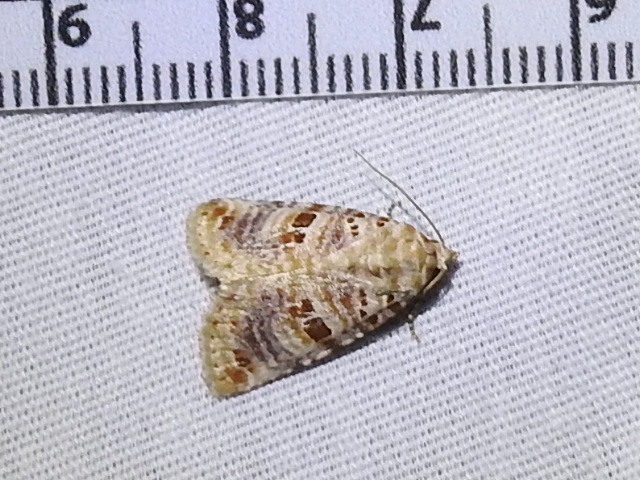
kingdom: Animalia
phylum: Arthropoda
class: Insecta
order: Lepidoptera
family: Noctuidae
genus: Diastema
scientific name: Diastema tigris
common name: Lantana moth
